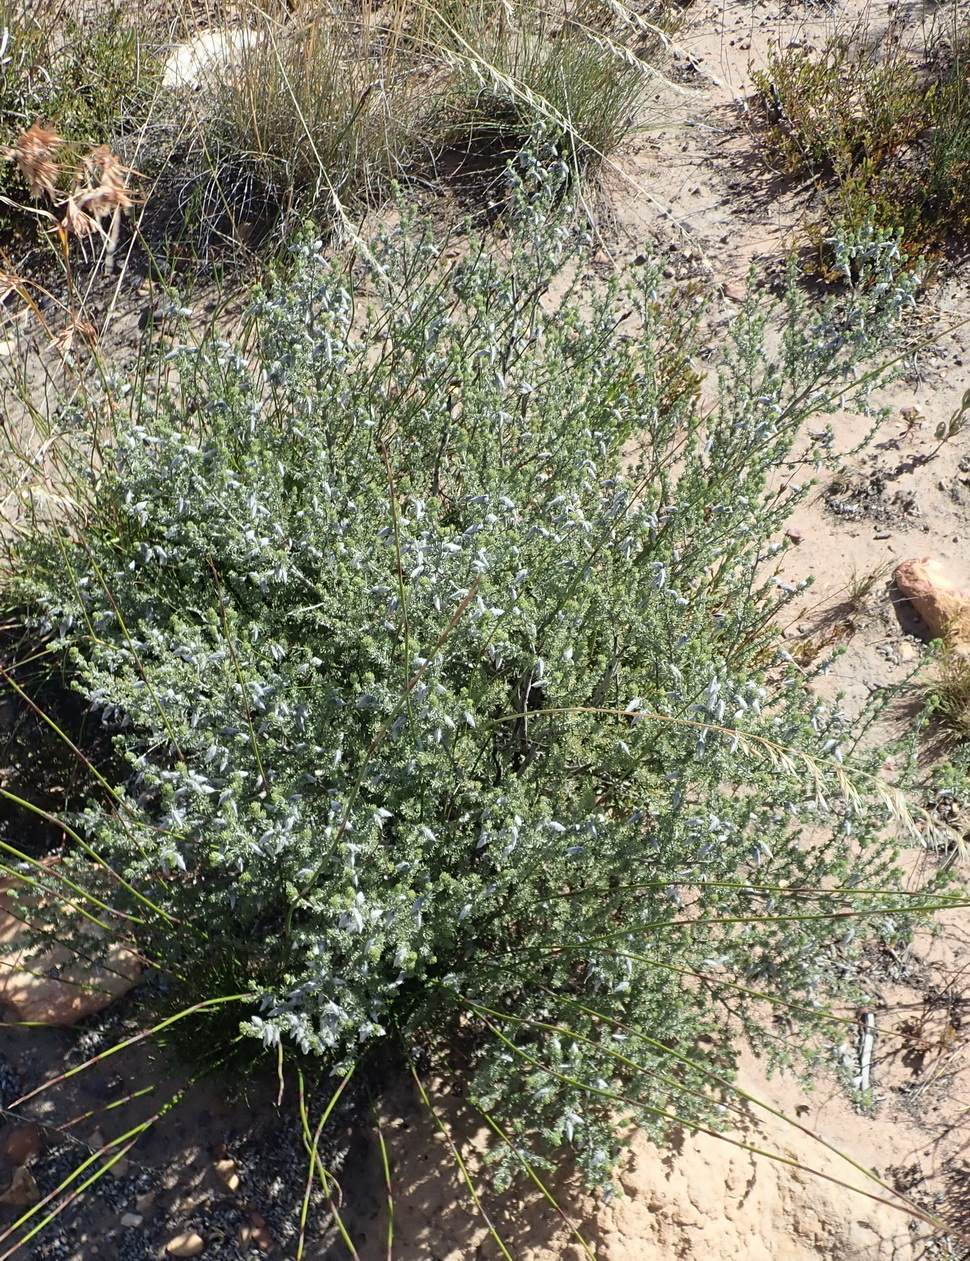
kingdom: Plantae
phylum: Tracheophyta
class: Magnoliopsida
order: Fabales
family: Fabaceae
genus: Aspalathus
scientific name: Aspalathus kougaensis
